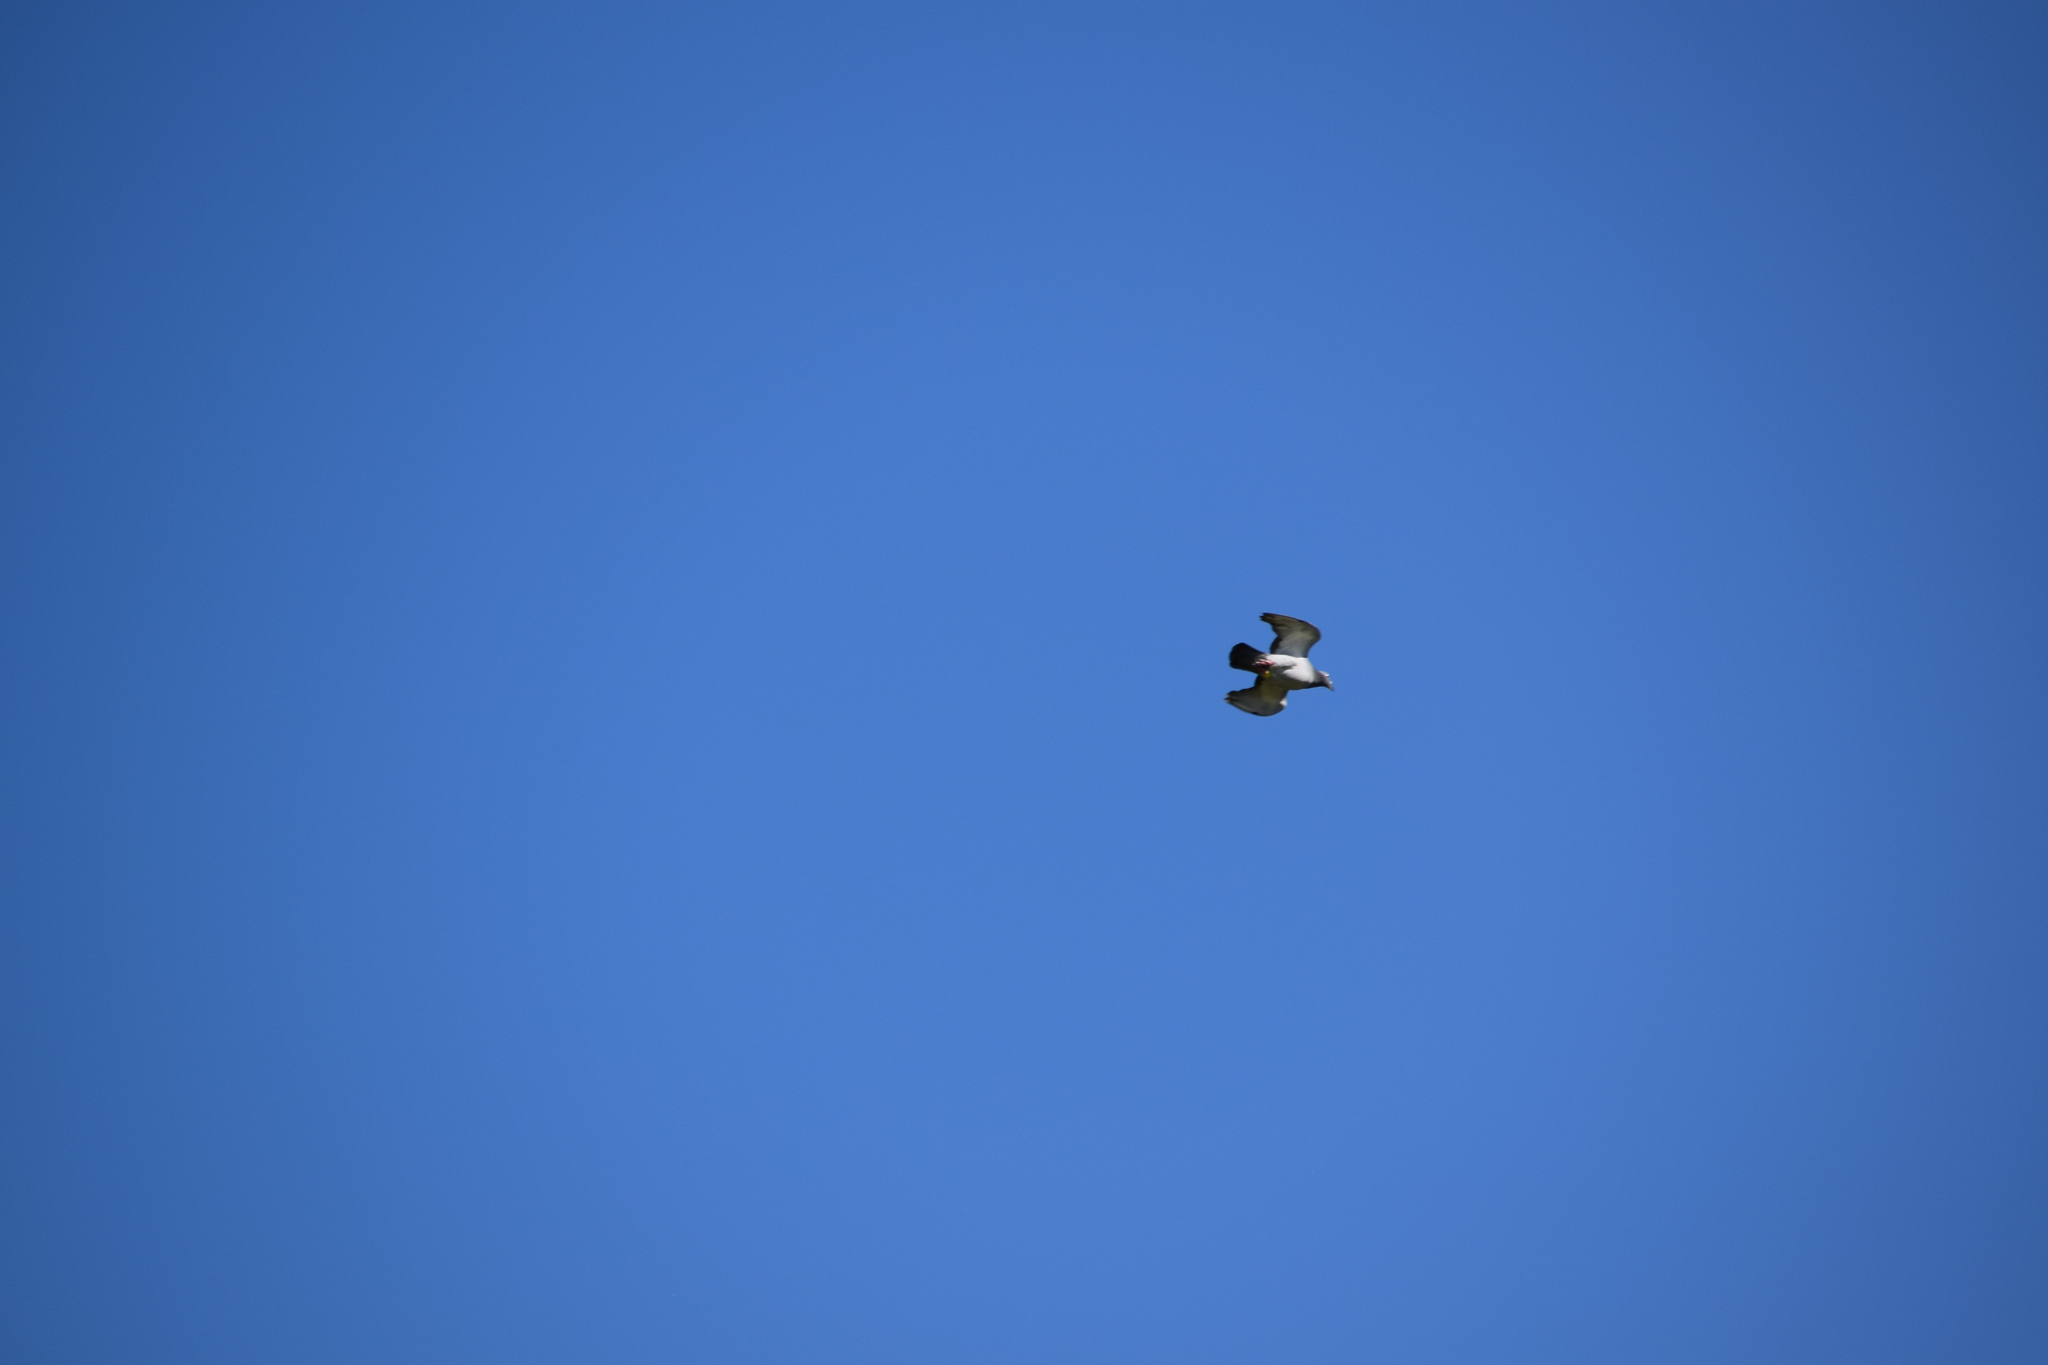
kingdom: Animalia
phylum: Chordata
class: Aves
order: Columbiformes
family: Columbidae
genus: Columba
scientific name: Columba livia
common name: Rock pigeon
